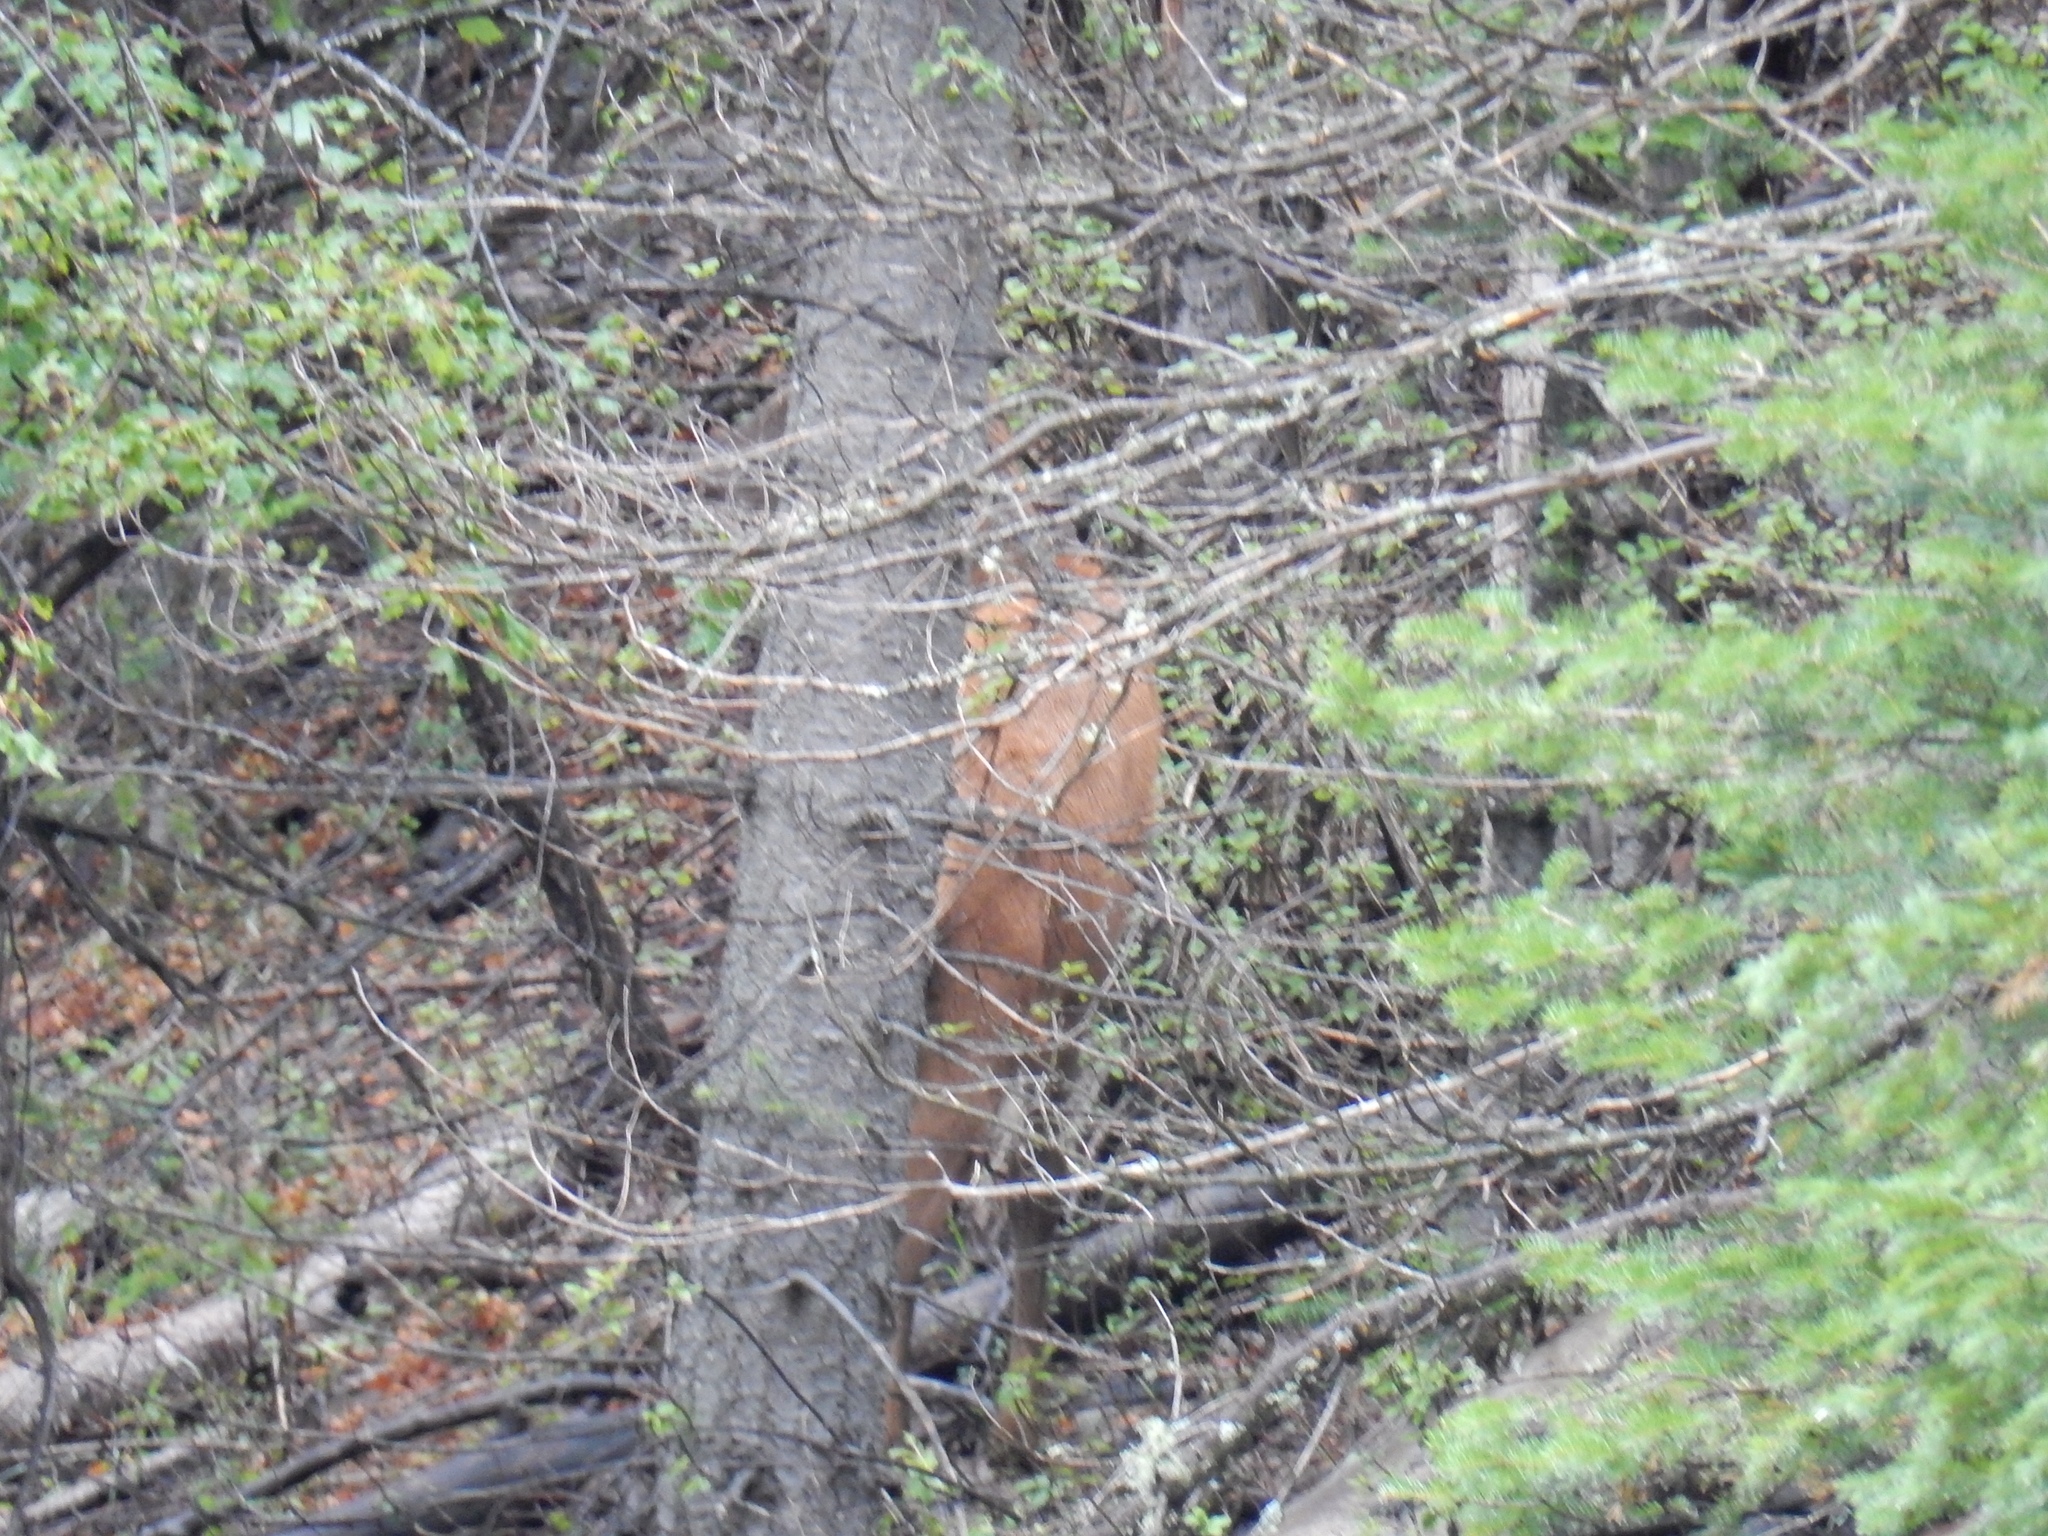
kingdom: Animalia
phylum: Chordata
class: Mammalia
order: Artiodactyla
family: Cervidae
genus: Cervus
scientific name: Cervus elaphus
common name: Red deer
